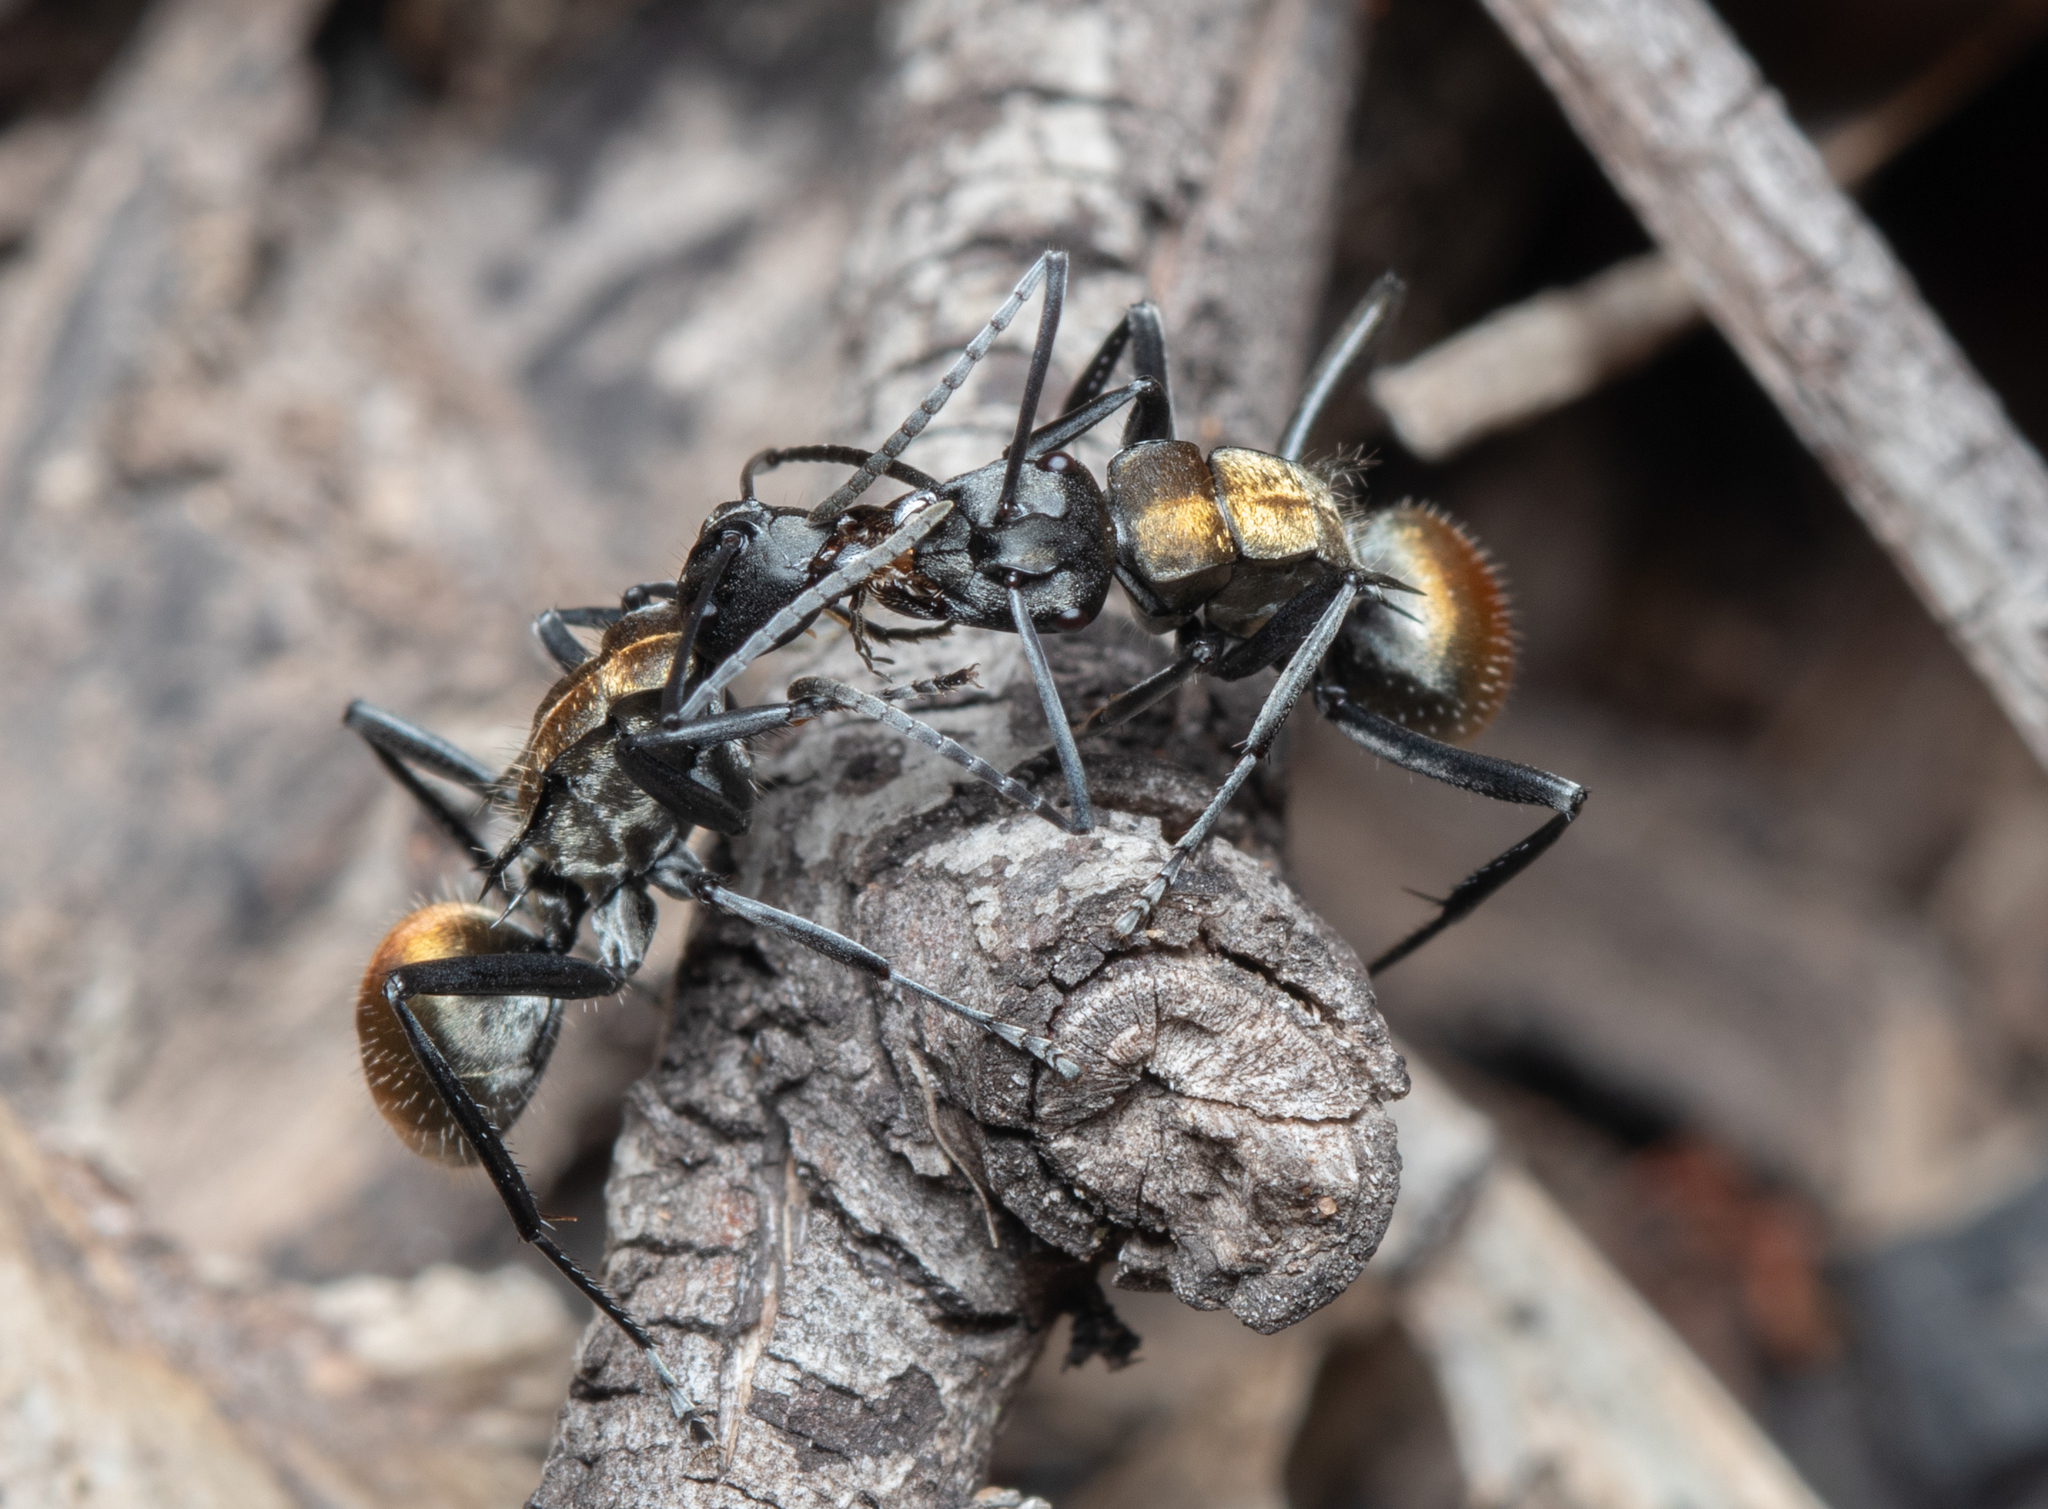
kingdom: Animalia
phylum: Arthropoda
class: Insecta
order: Hymenoptera
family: Formicidae
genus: Polyrhachis
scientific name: Polyrhachis ammon
